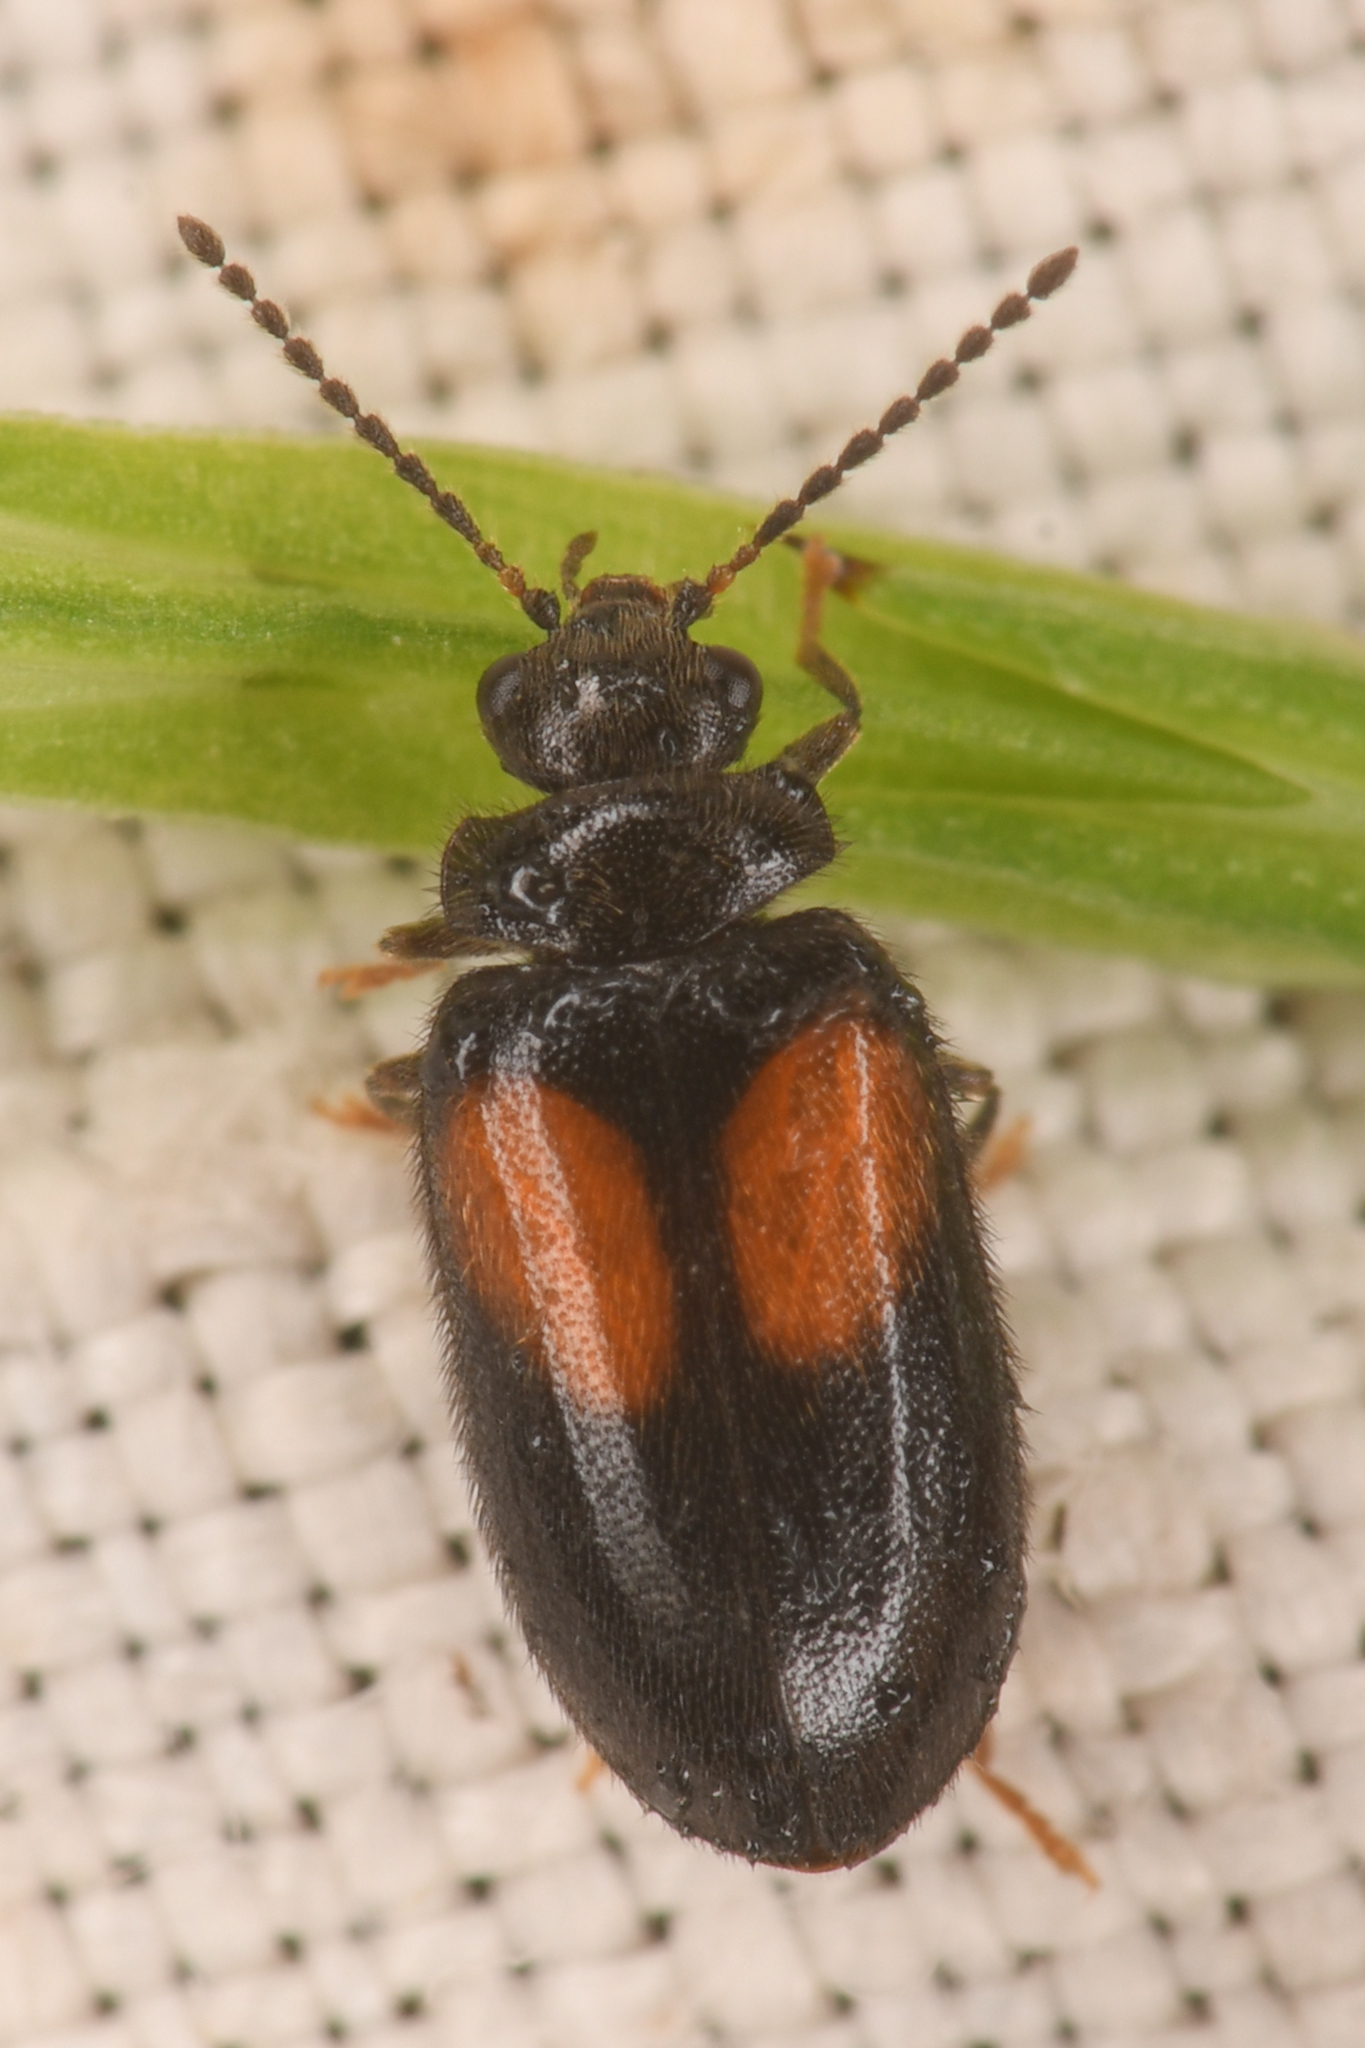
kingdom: Animalia
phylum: Arthropoda
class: Insecta
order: Coleoptera
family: Scirtidae
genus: Cyphon
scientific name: Cyphon concinnus
